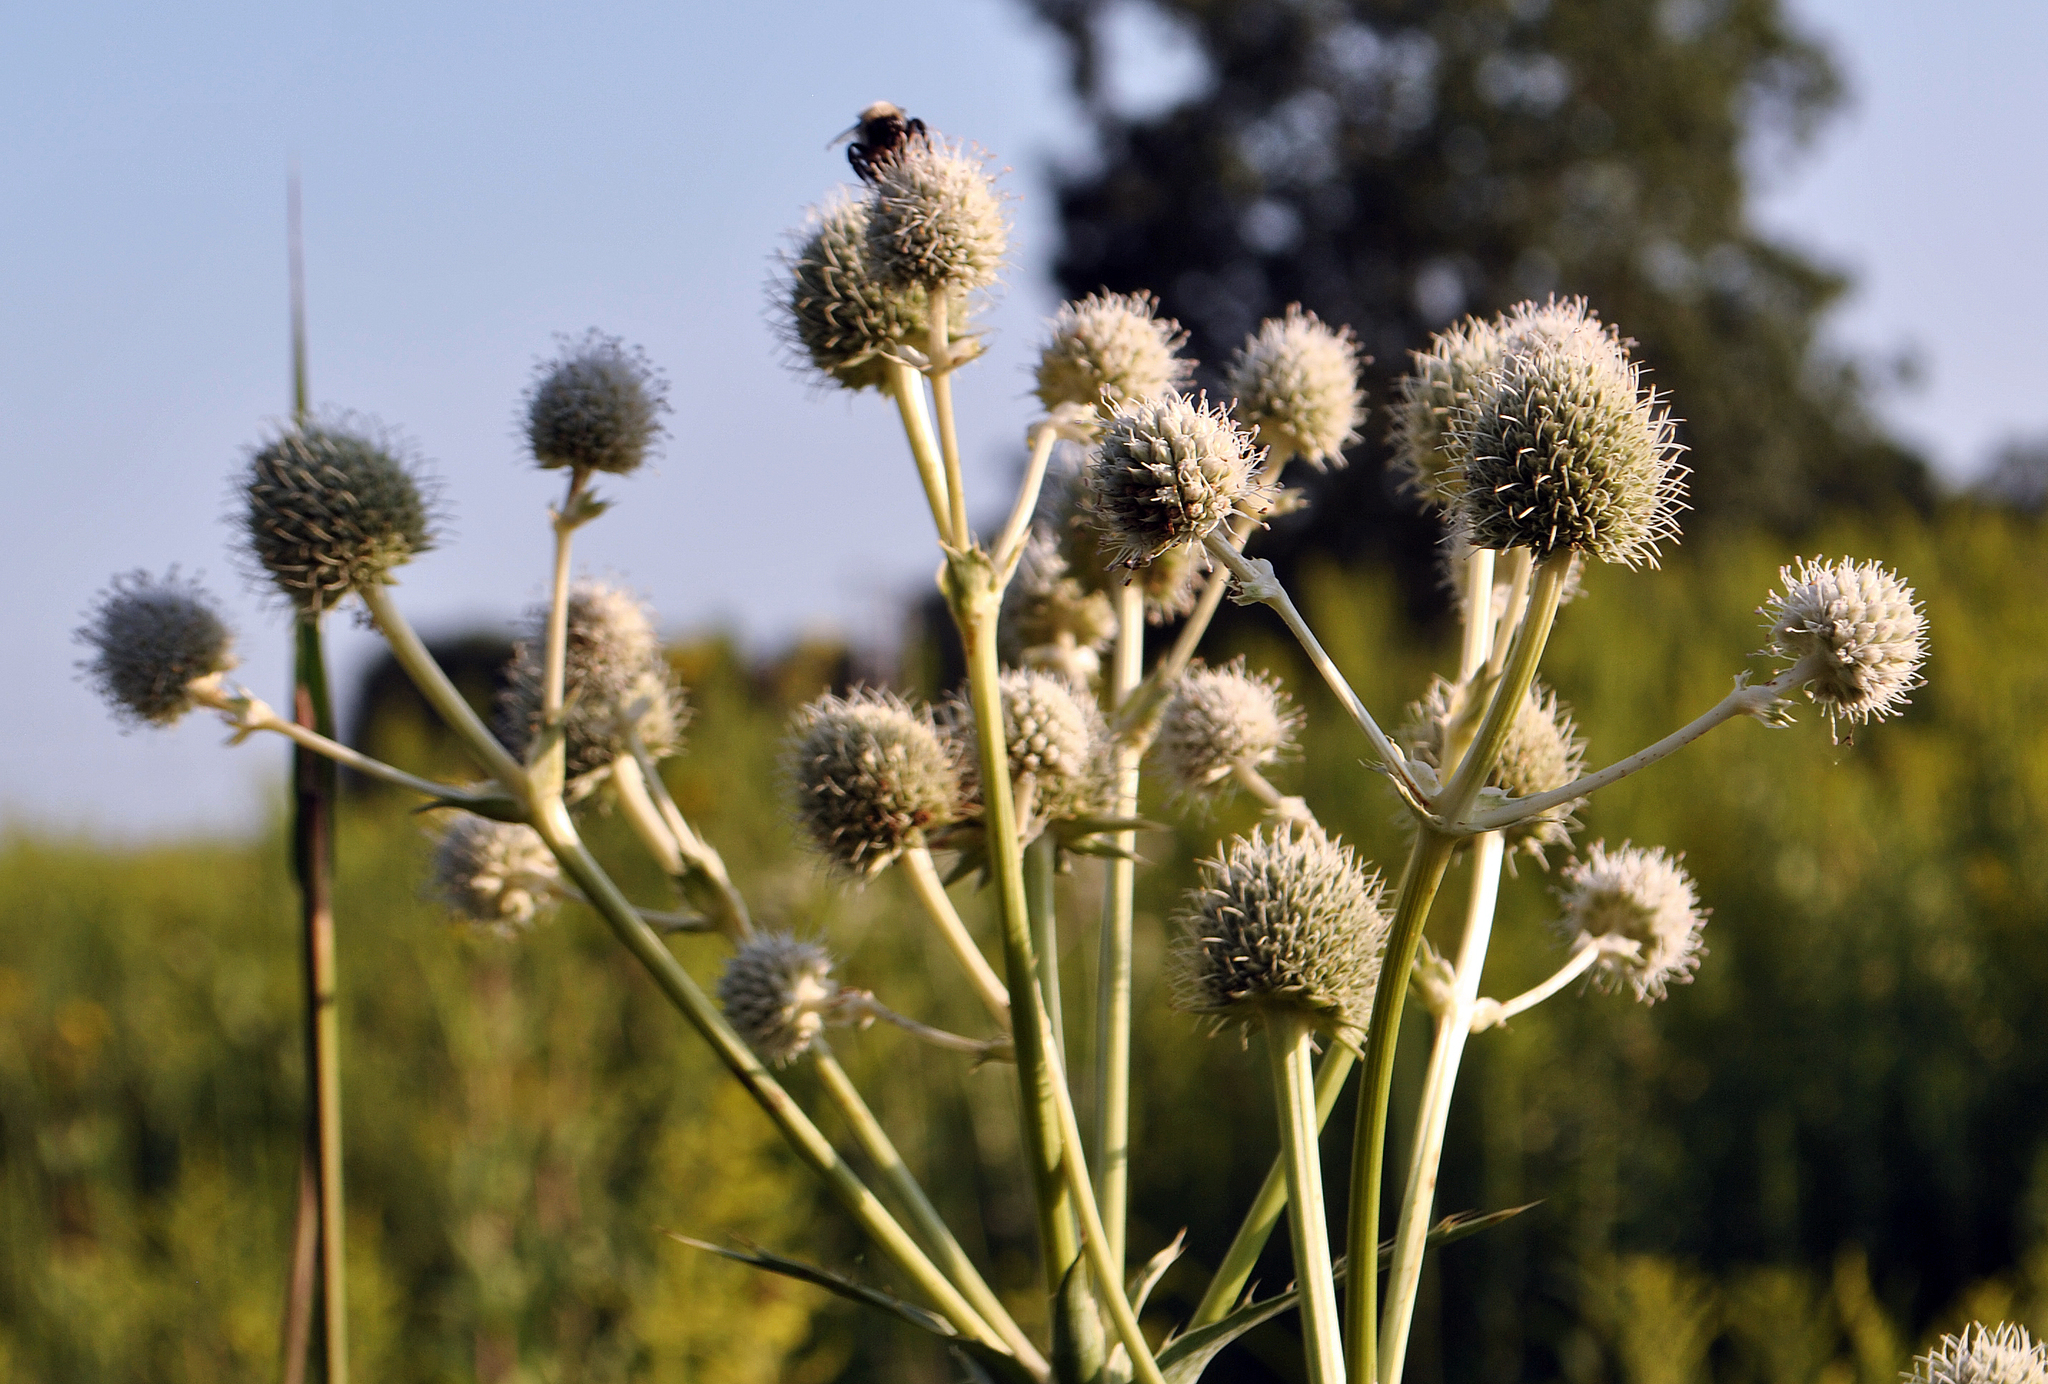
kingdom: Plantae
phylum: Tracheophyta
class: Magnoliopsida
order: Apiales
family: Apiaceae
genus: Eryngium
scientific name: Eryngium yuccifolium
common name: Button eryngo
